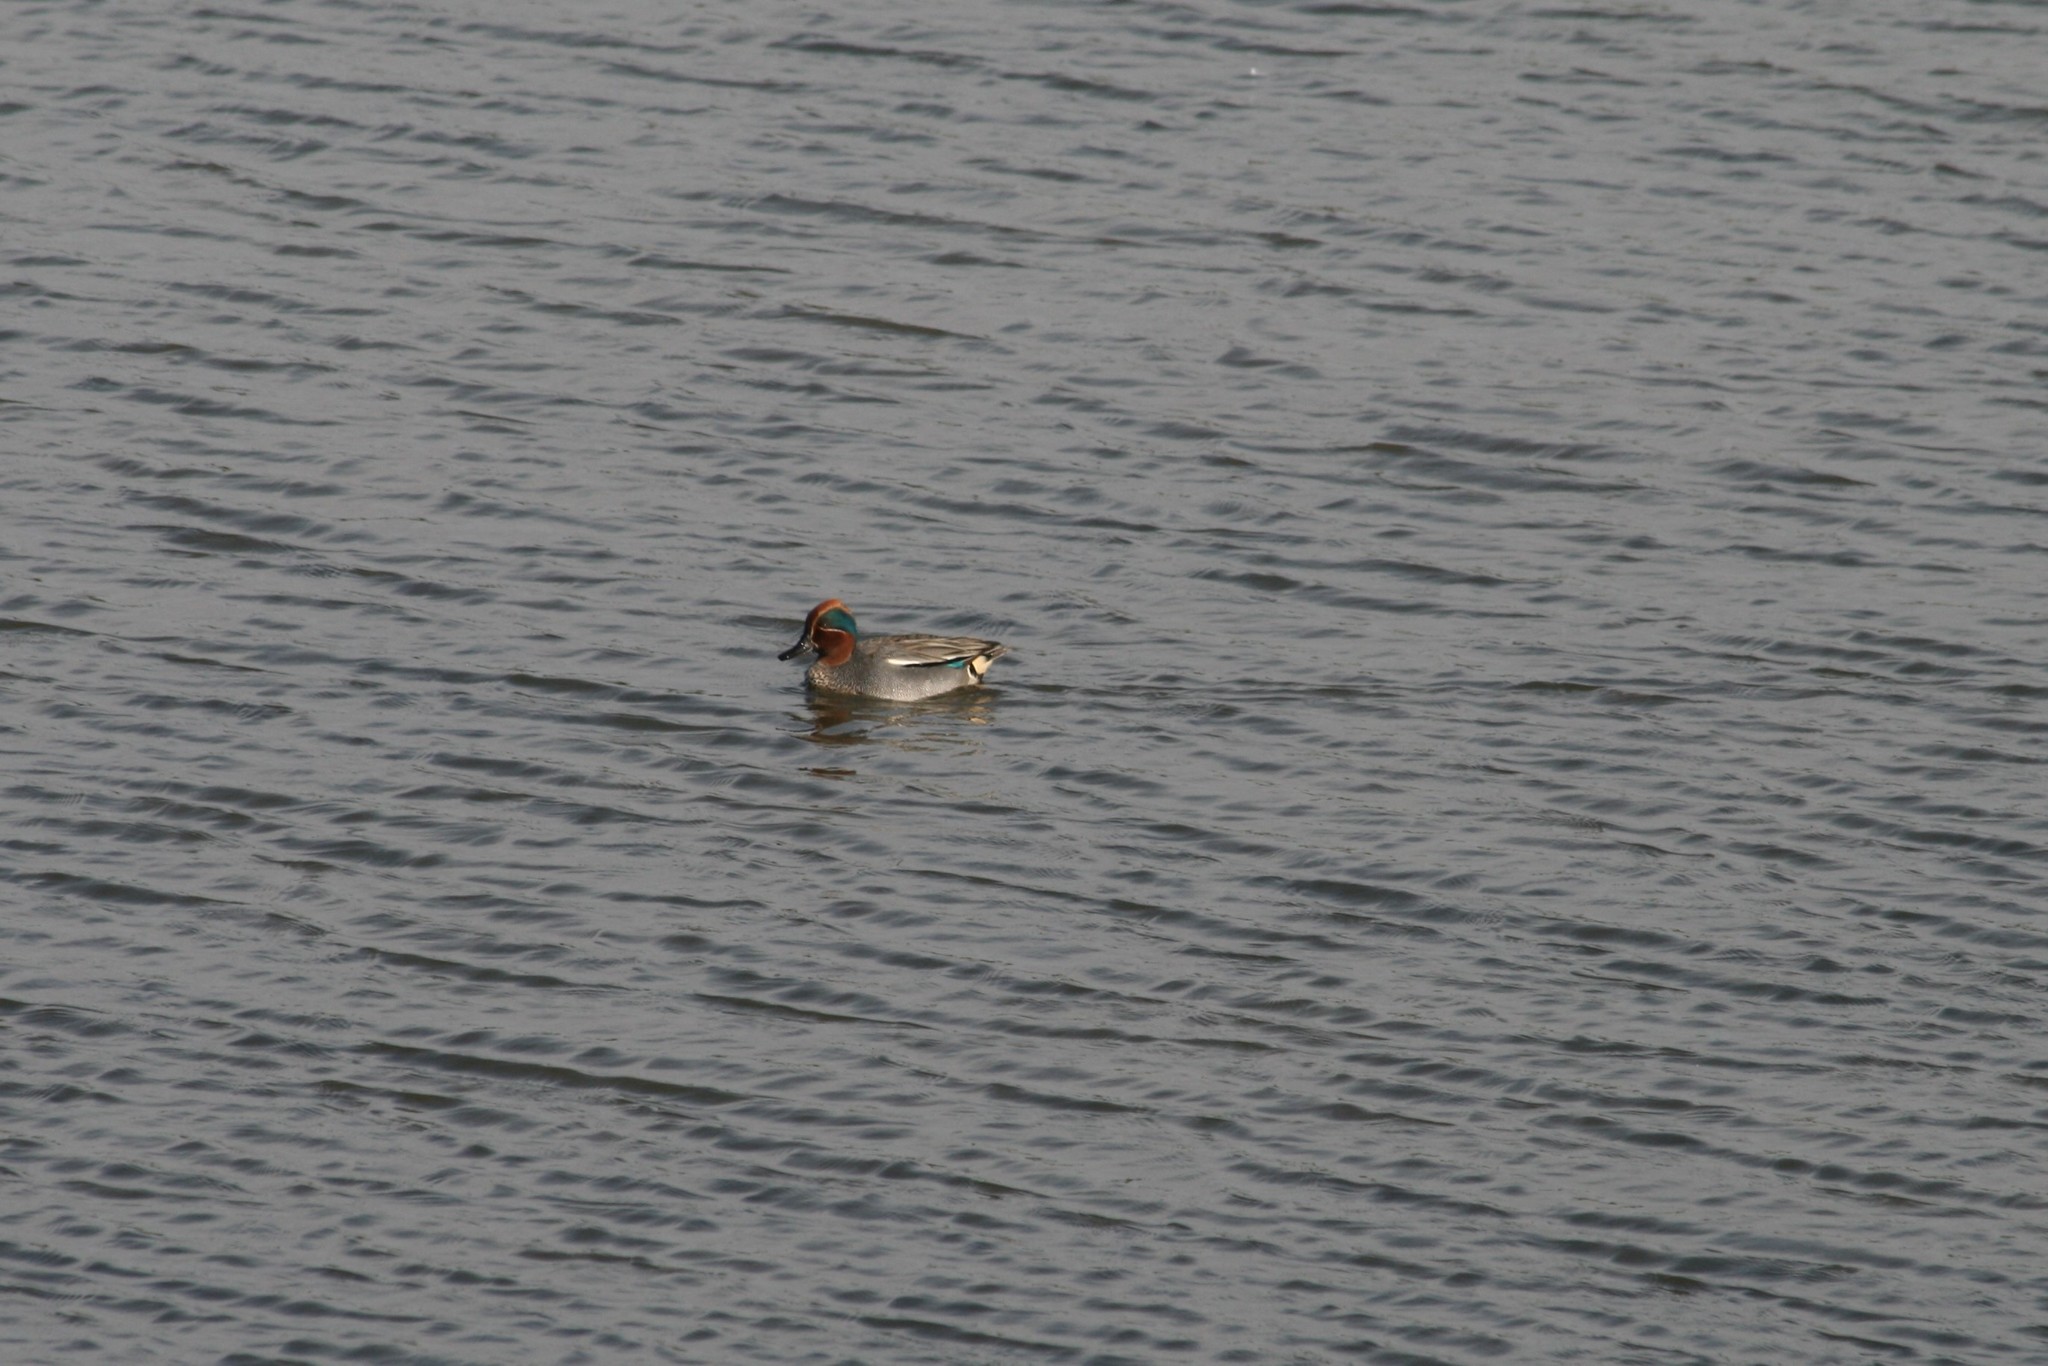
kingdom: Animalia
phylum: Chordata
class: Aves
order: Anseriformes
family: Anatidae
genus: Anas
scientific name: Anas crecca
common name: Eurasian teal
